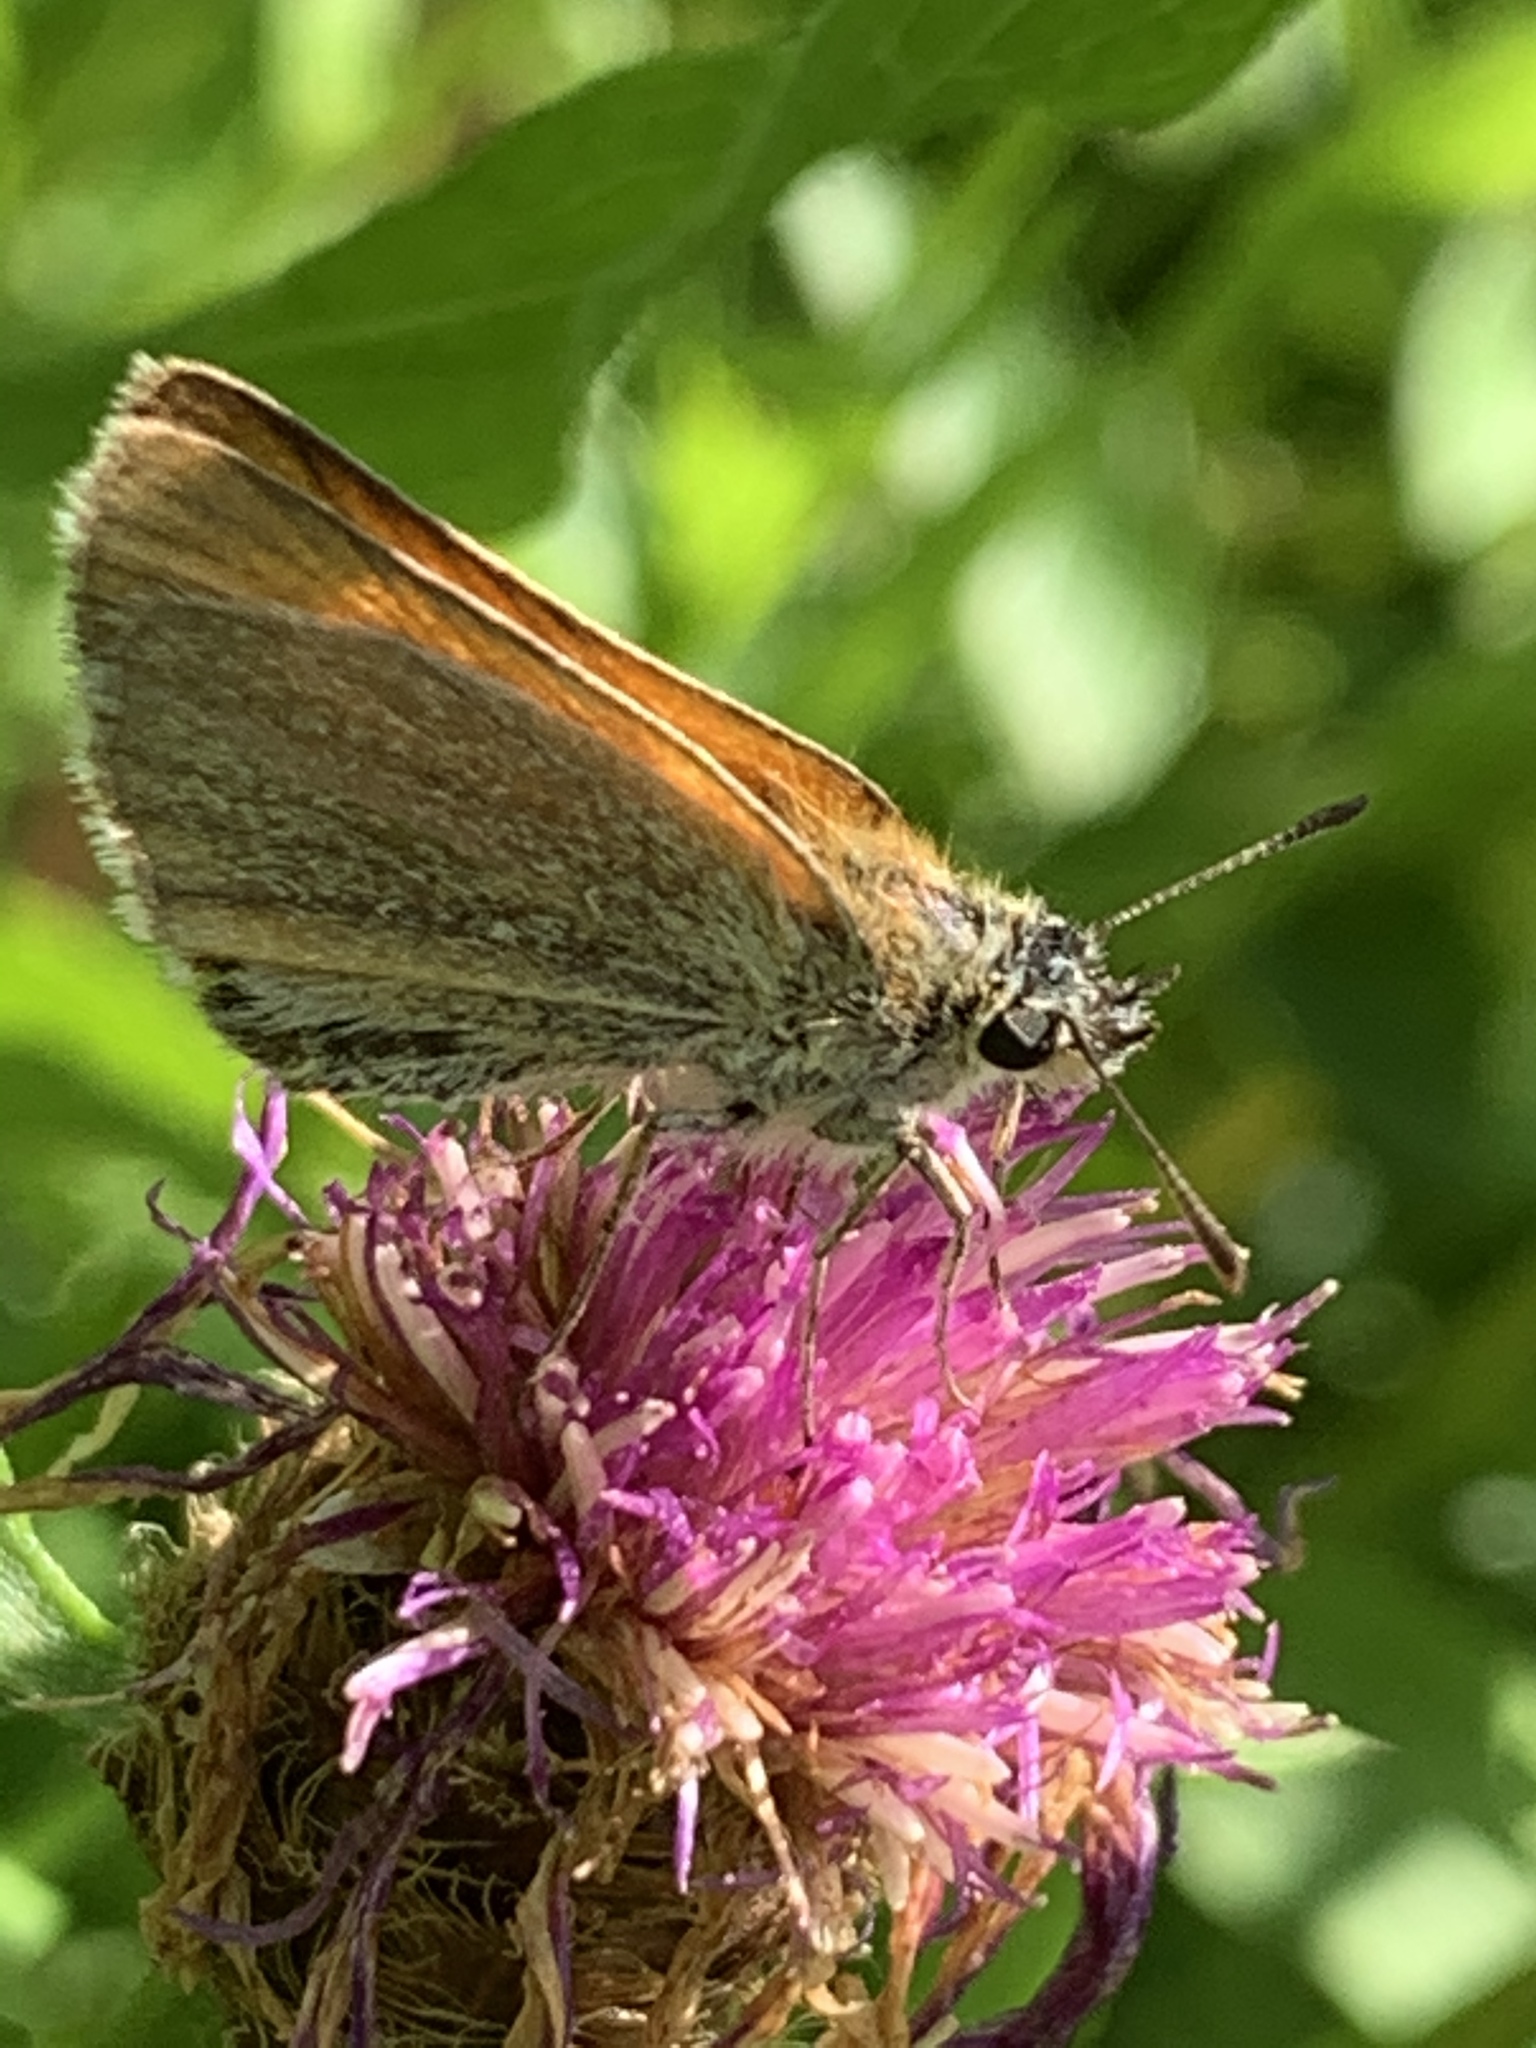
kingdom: Animalia
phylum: Arthropoda
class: Insecta
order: Lepidoptera
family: Hesperiidae
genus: Thymelicus
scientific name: Thymelicus lineola
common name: Essex skipper
